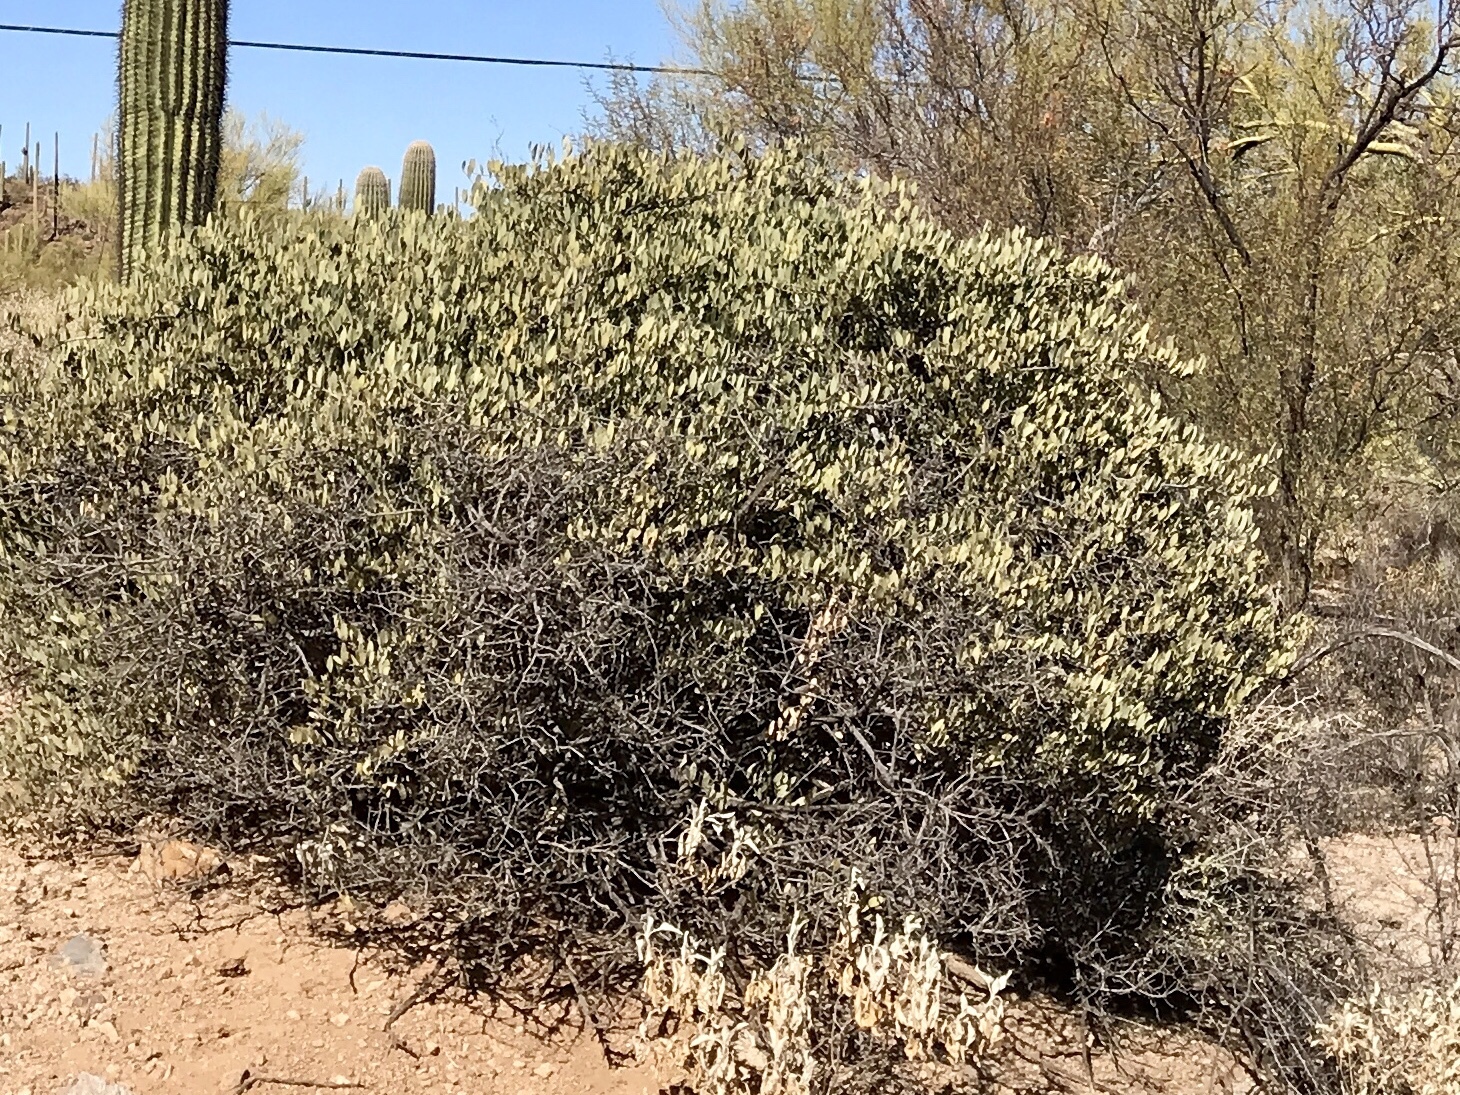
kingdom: Plantae
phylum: Tracheophyta
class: Magnoliopsida
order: Caryophyllales
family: Simmondsiaceae
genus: Simmondsia
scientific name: Simmondsia chinensis
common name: Jojoba
